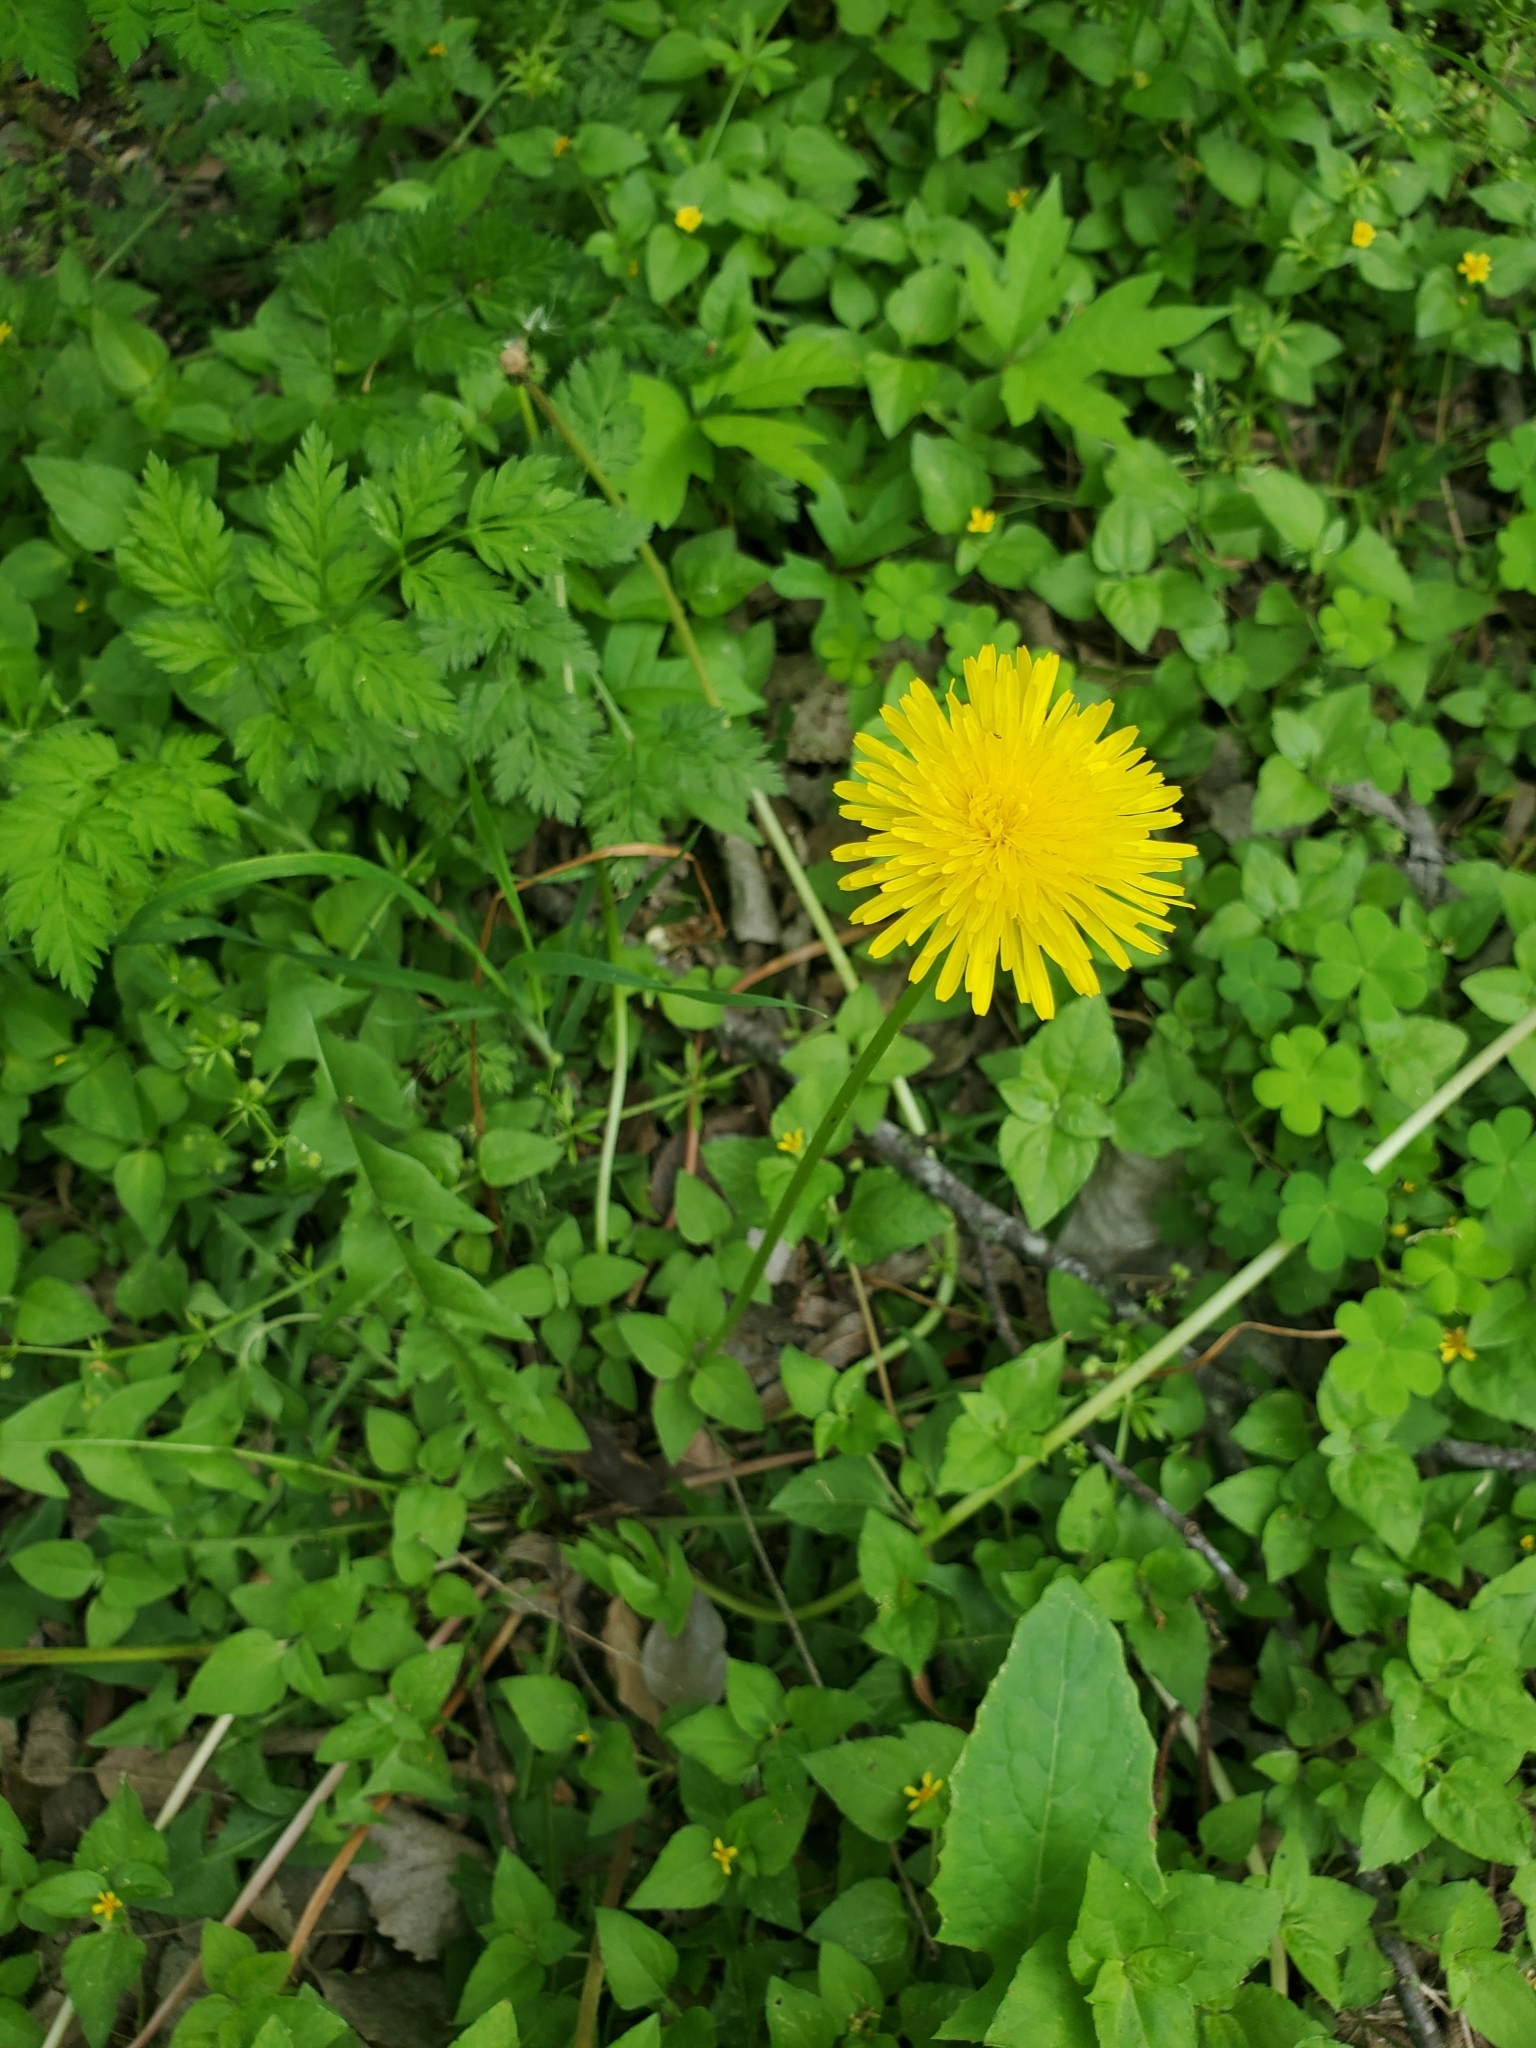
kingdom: Plantae
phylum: Tracheophyta
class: Magnoliopsida
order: Asterales
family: Asteraceae
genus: Taraxacum
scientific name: Taraxacum officinale
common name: Common dandelion
